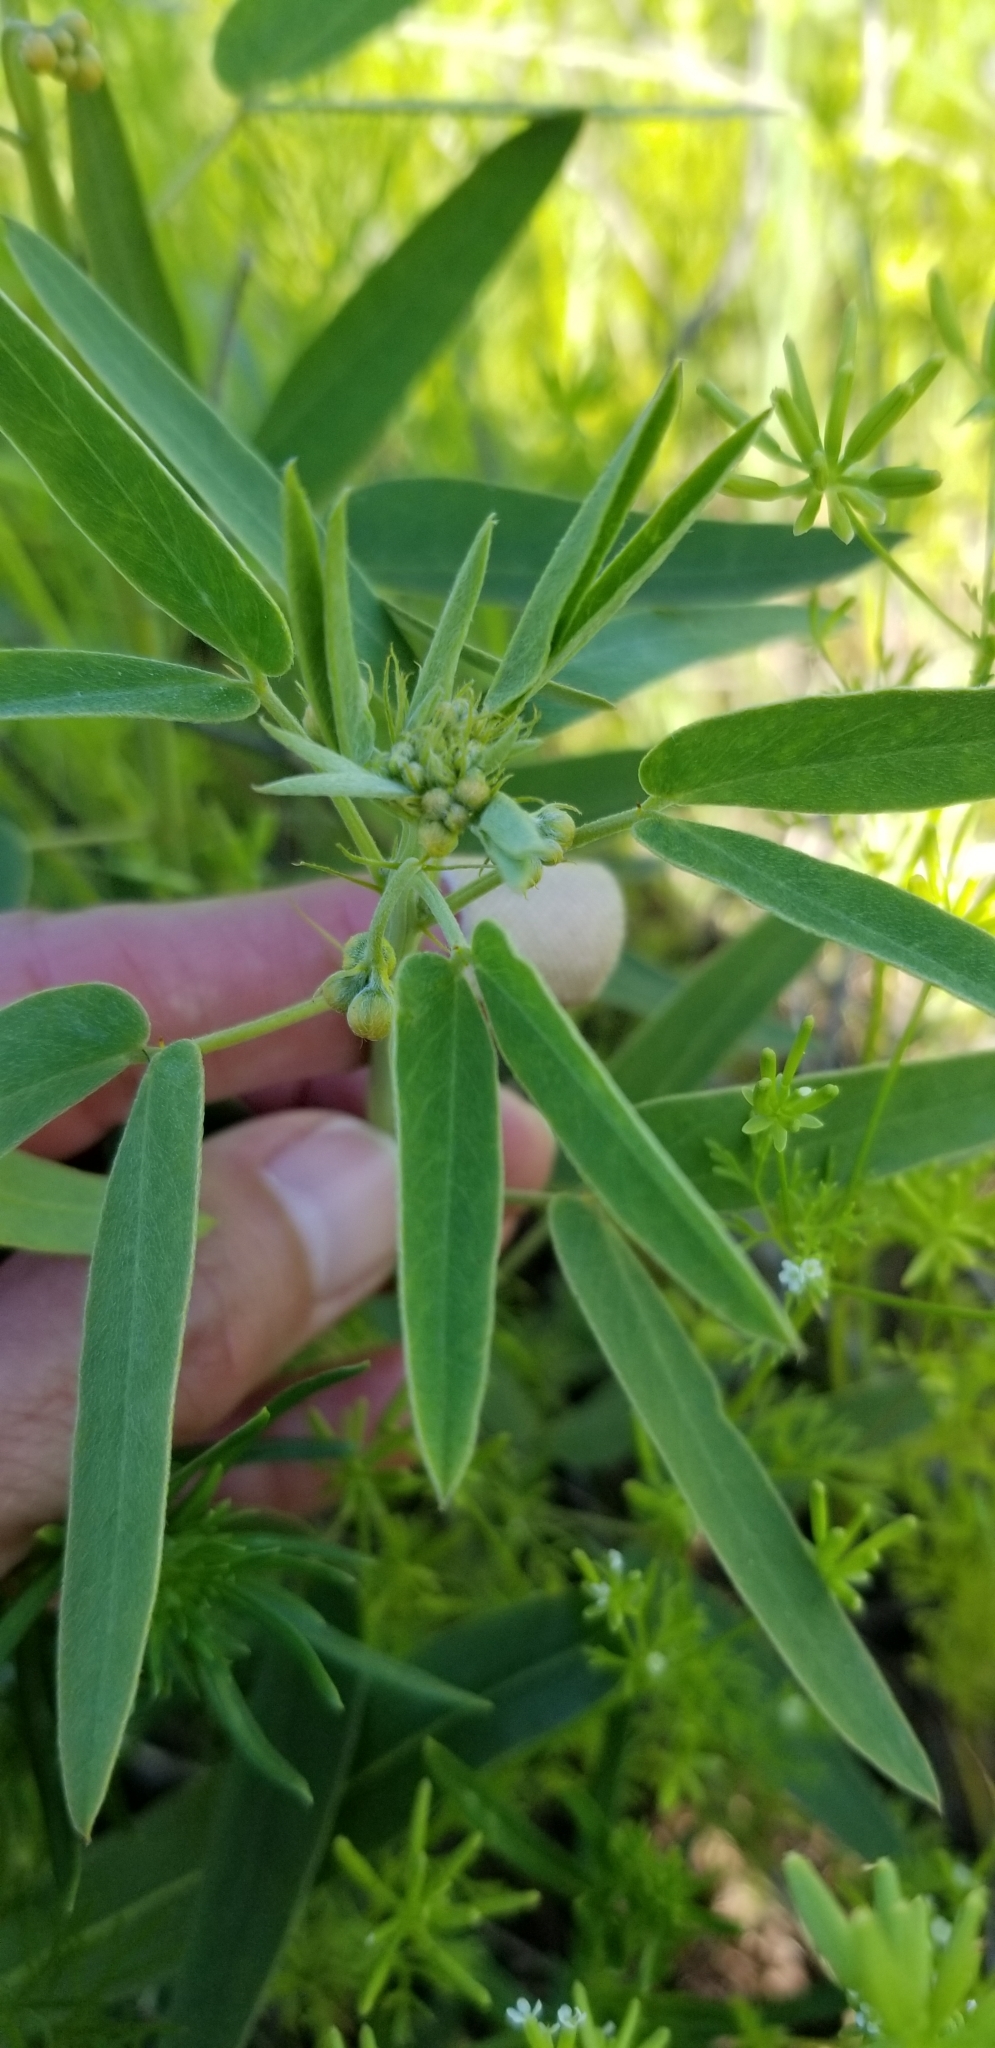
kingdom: Plantae
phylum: Tracheophyta
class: Magnoliopsida
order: Fabales
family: Fabaceae
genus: Senna
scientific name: Senna roemeriana
